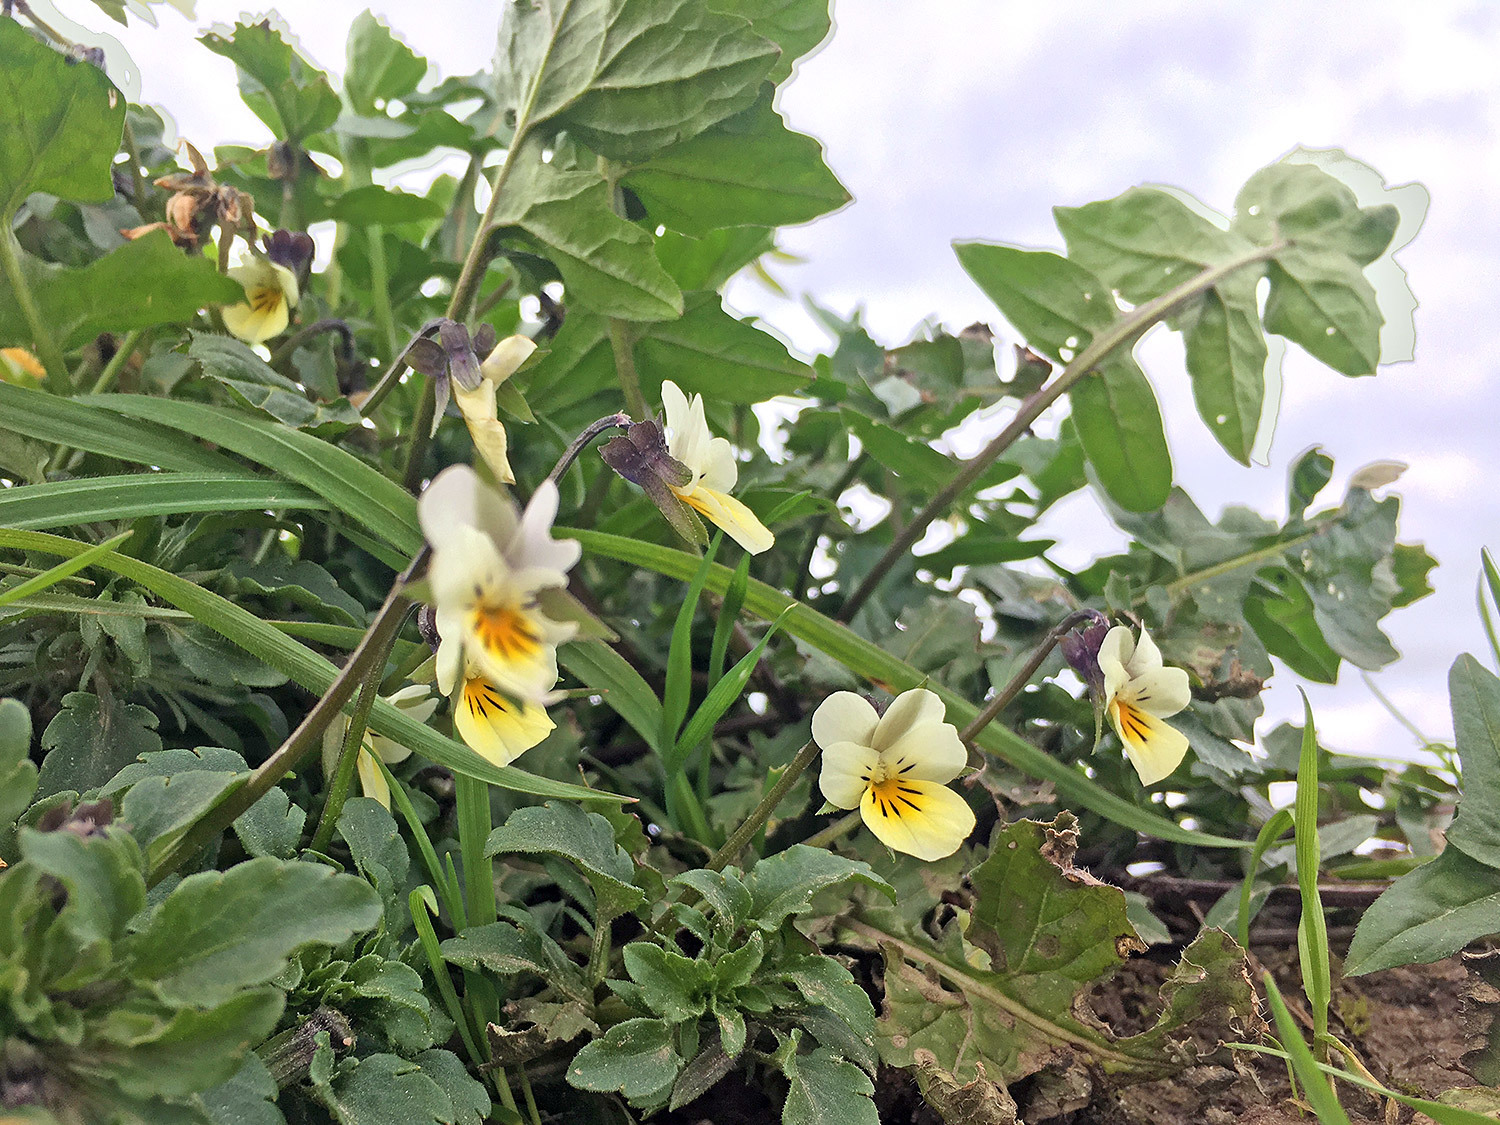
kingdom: Plantae
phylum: Tracheophyta
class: Magnoliopsida
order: Malpighiales
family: Violaceae
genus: Viola
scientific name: Viola arvensis
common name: Field pansy
